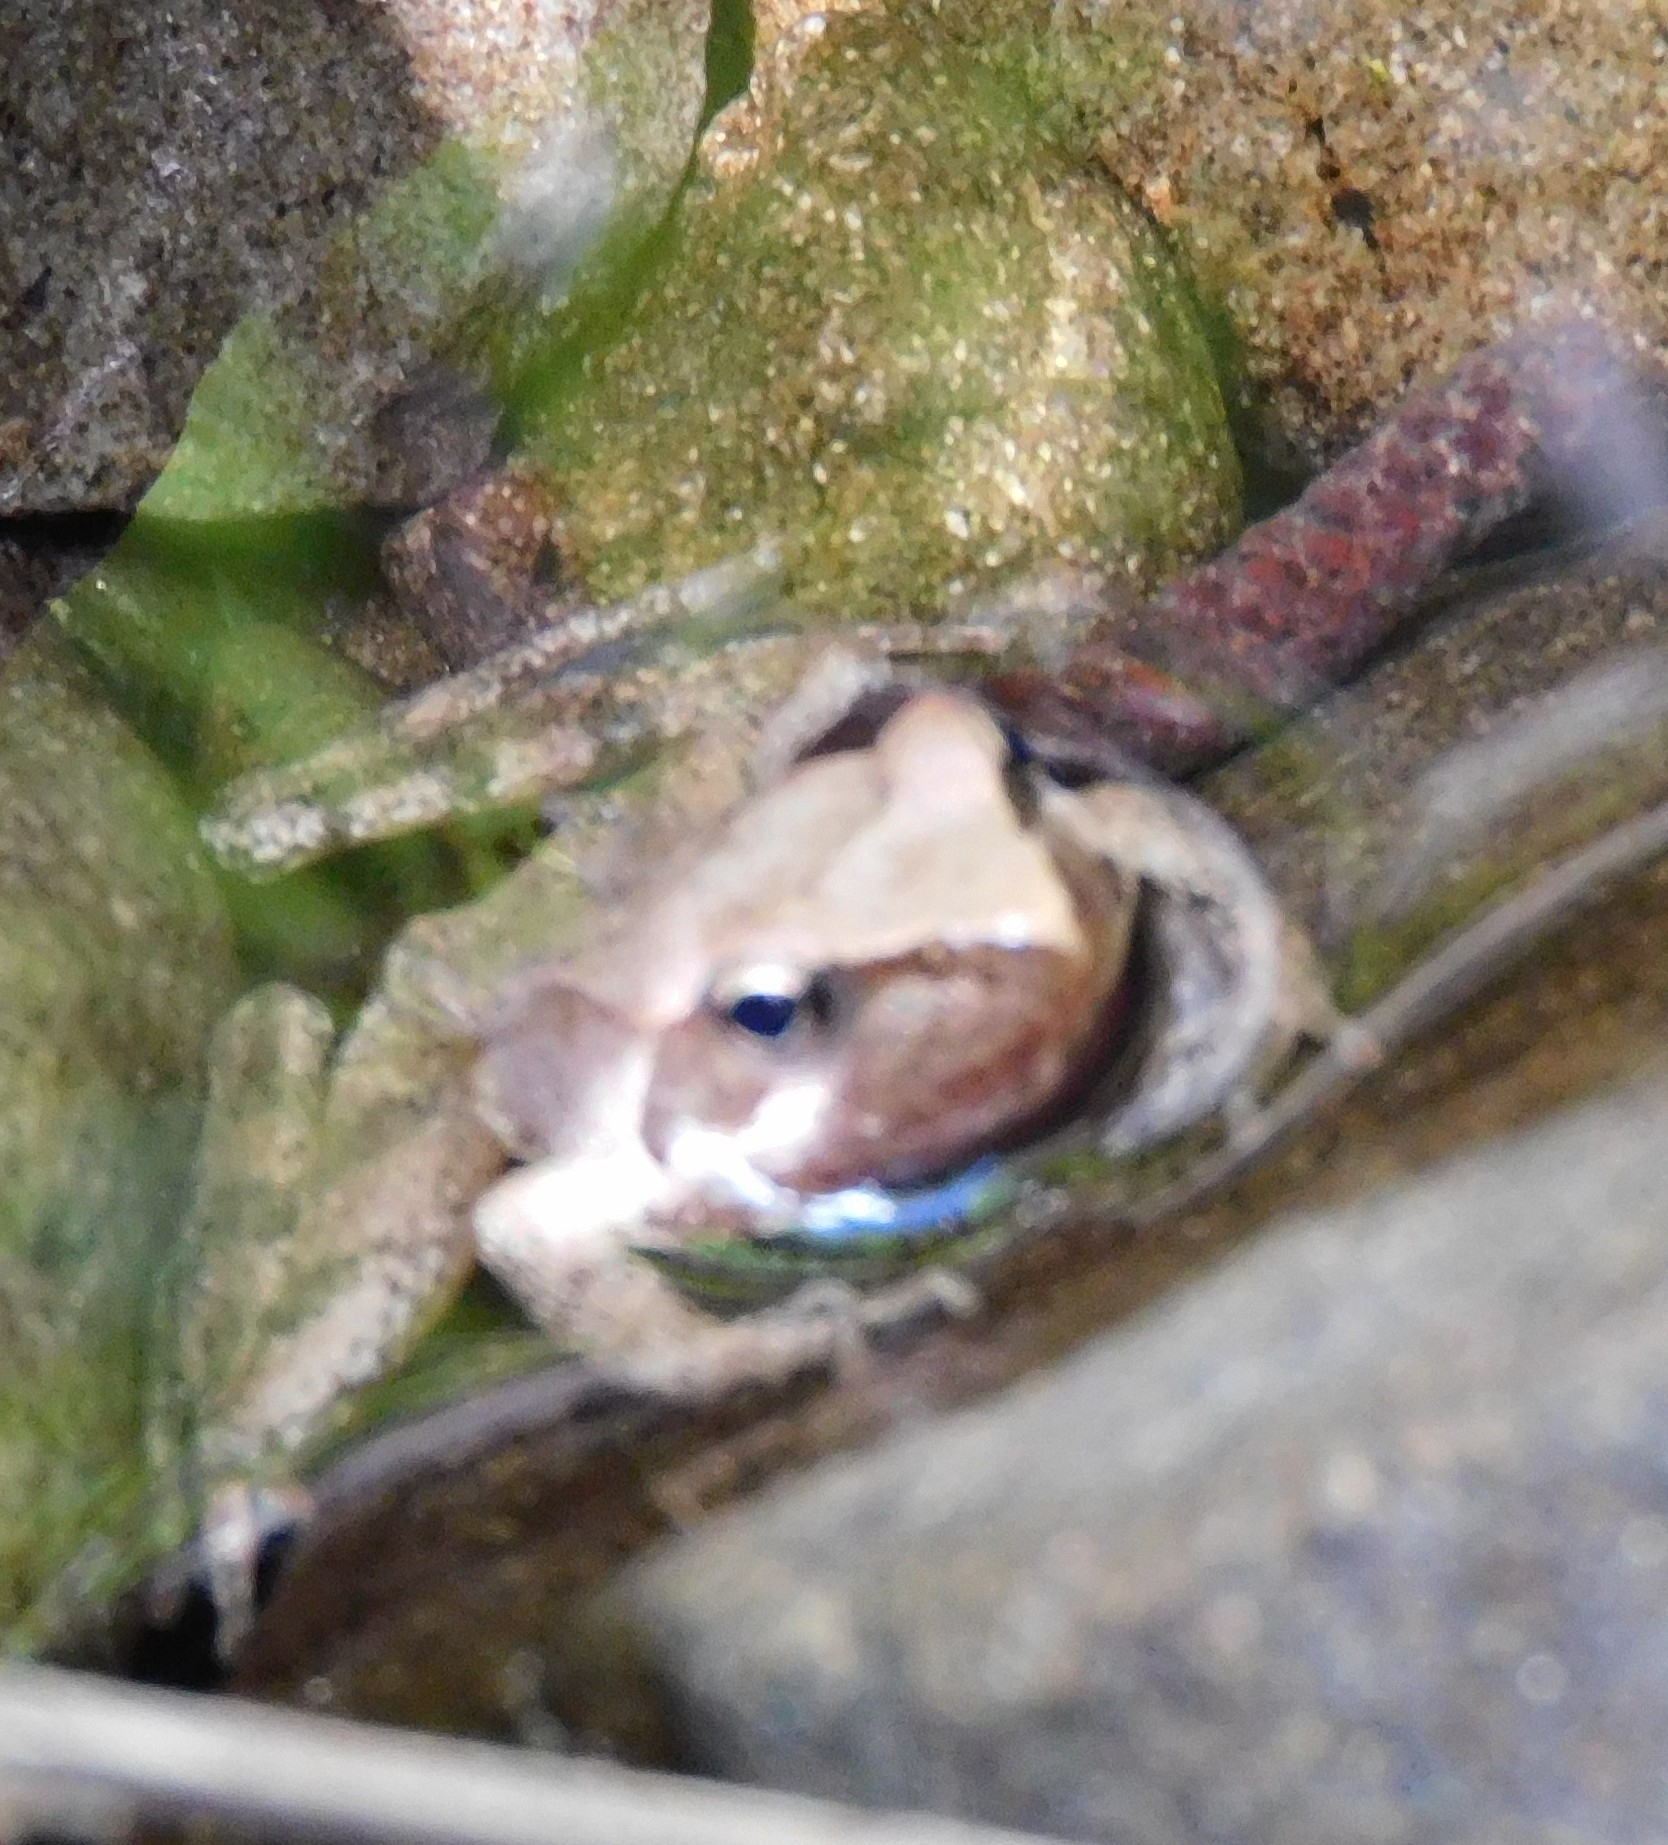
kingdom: Animalia
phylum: Chordata
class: Amphibia
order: Anura
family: Ranidae
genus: Rana
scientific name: Rana italica
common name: Italian stream frog
